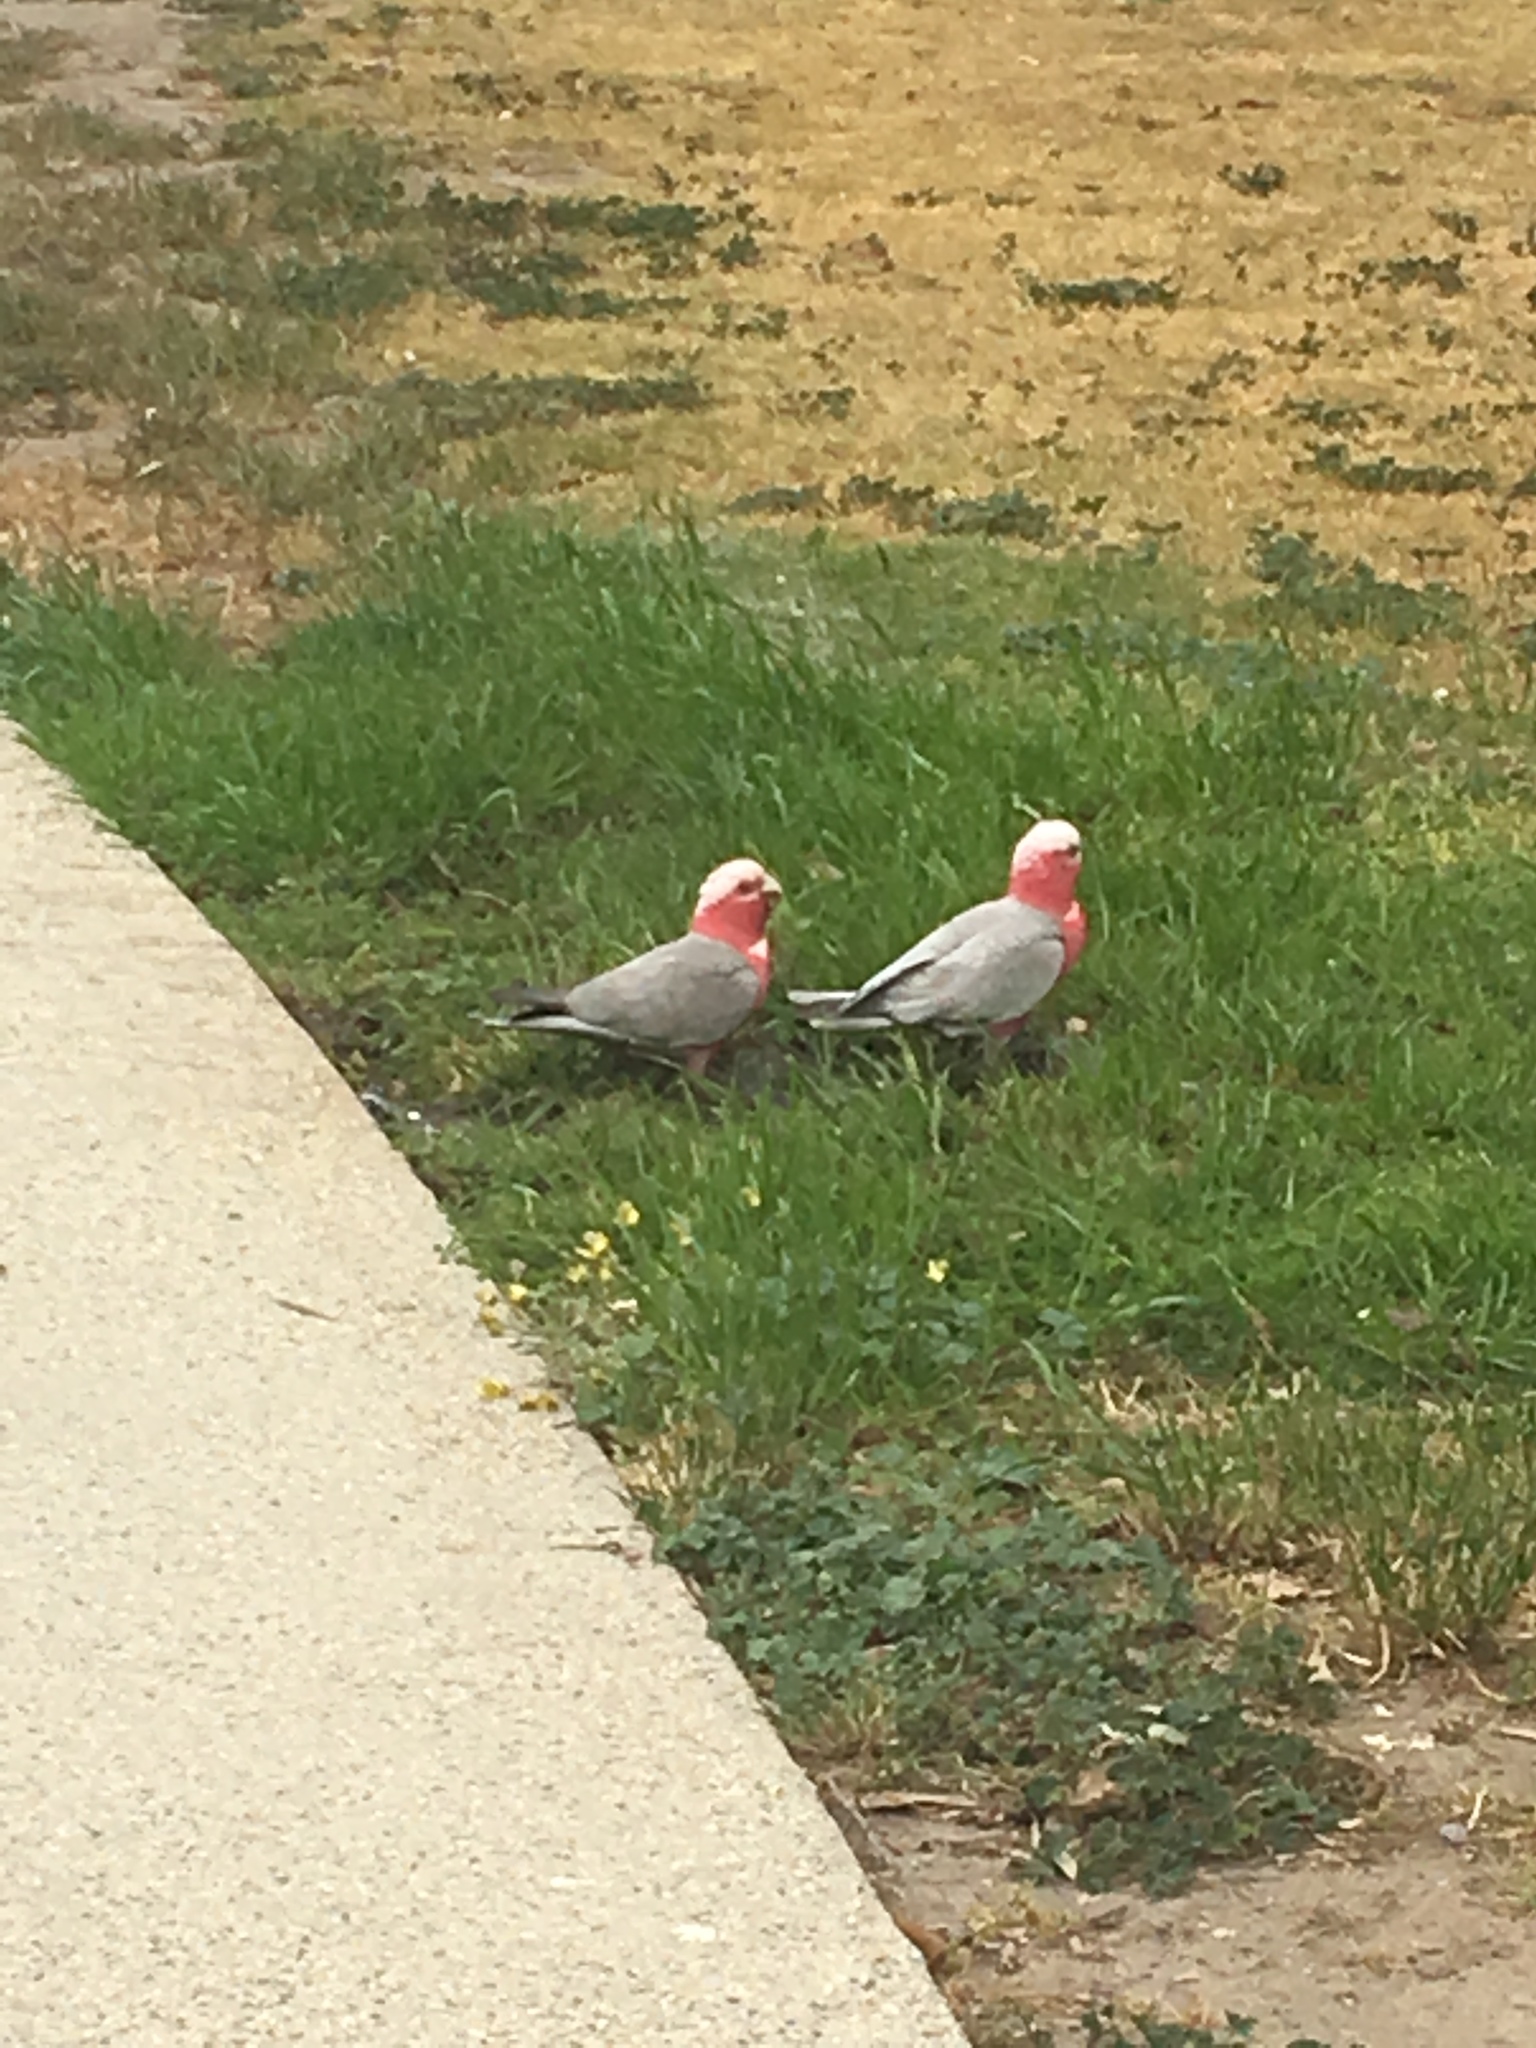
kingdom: Animalia
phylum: Chordata
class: Aves
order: Psittaciformes
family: Psittacidae
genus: Eolophus
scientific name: Eolophus roseicapilla
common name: Galah
